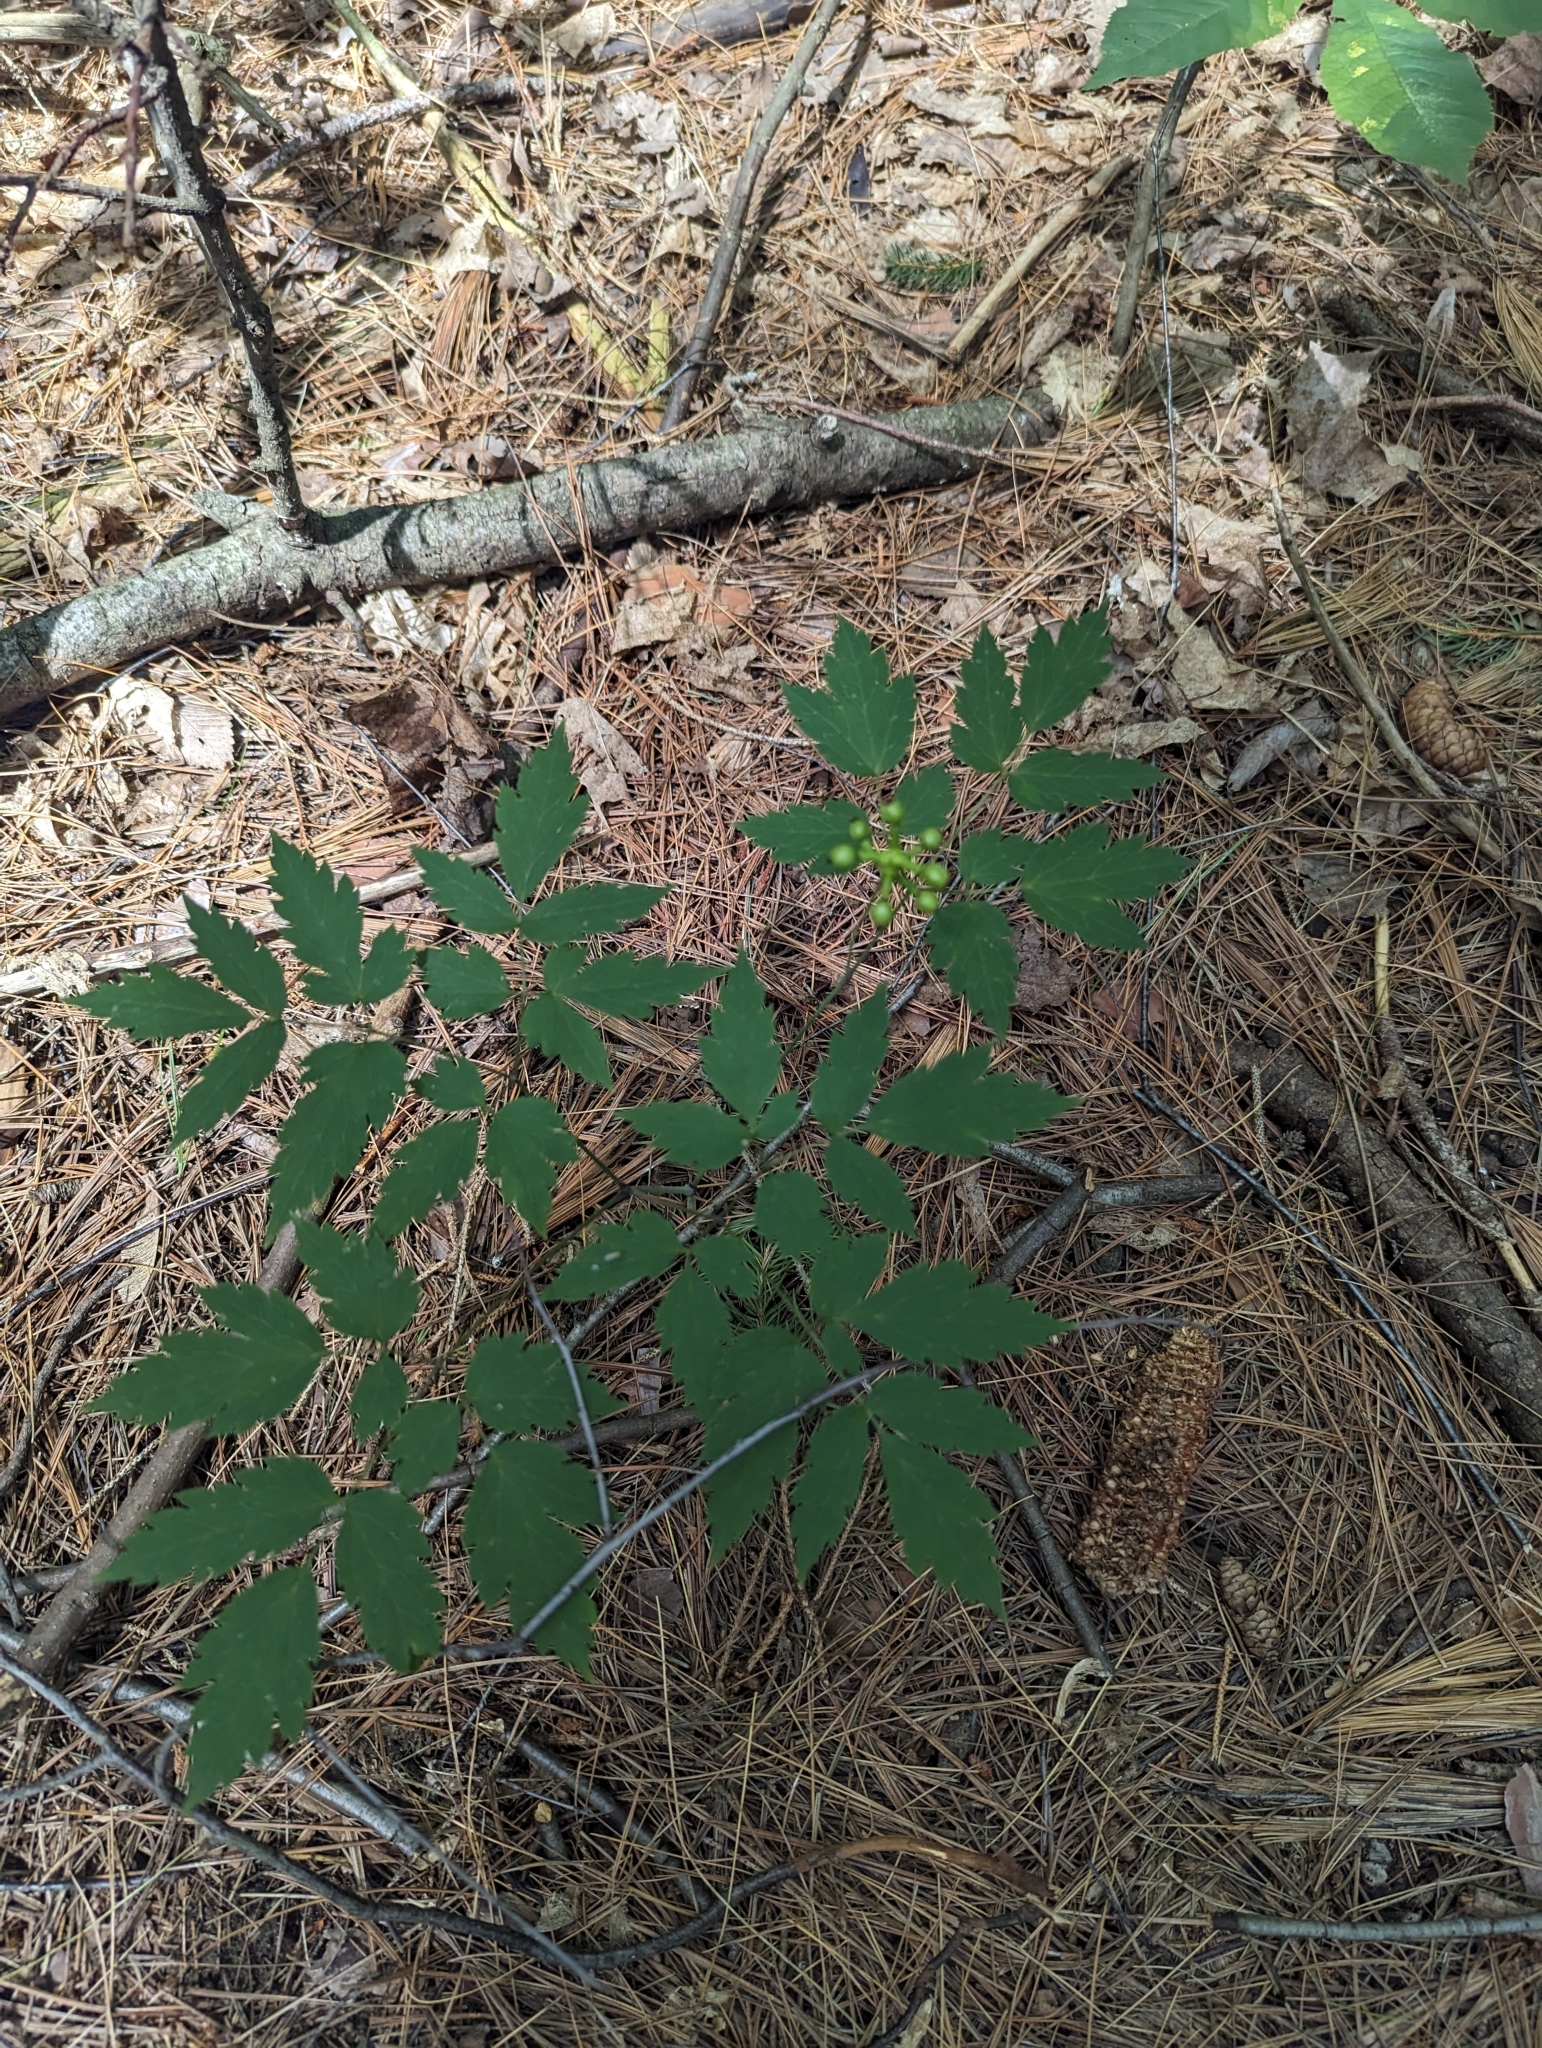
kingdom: Plantae
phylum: Tracheophyta
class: Magnoliopsida
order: Ranunculales
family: Ranunculaceae
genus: Actaea
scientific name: Actaea pachypoda
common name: Doll's-eyes
